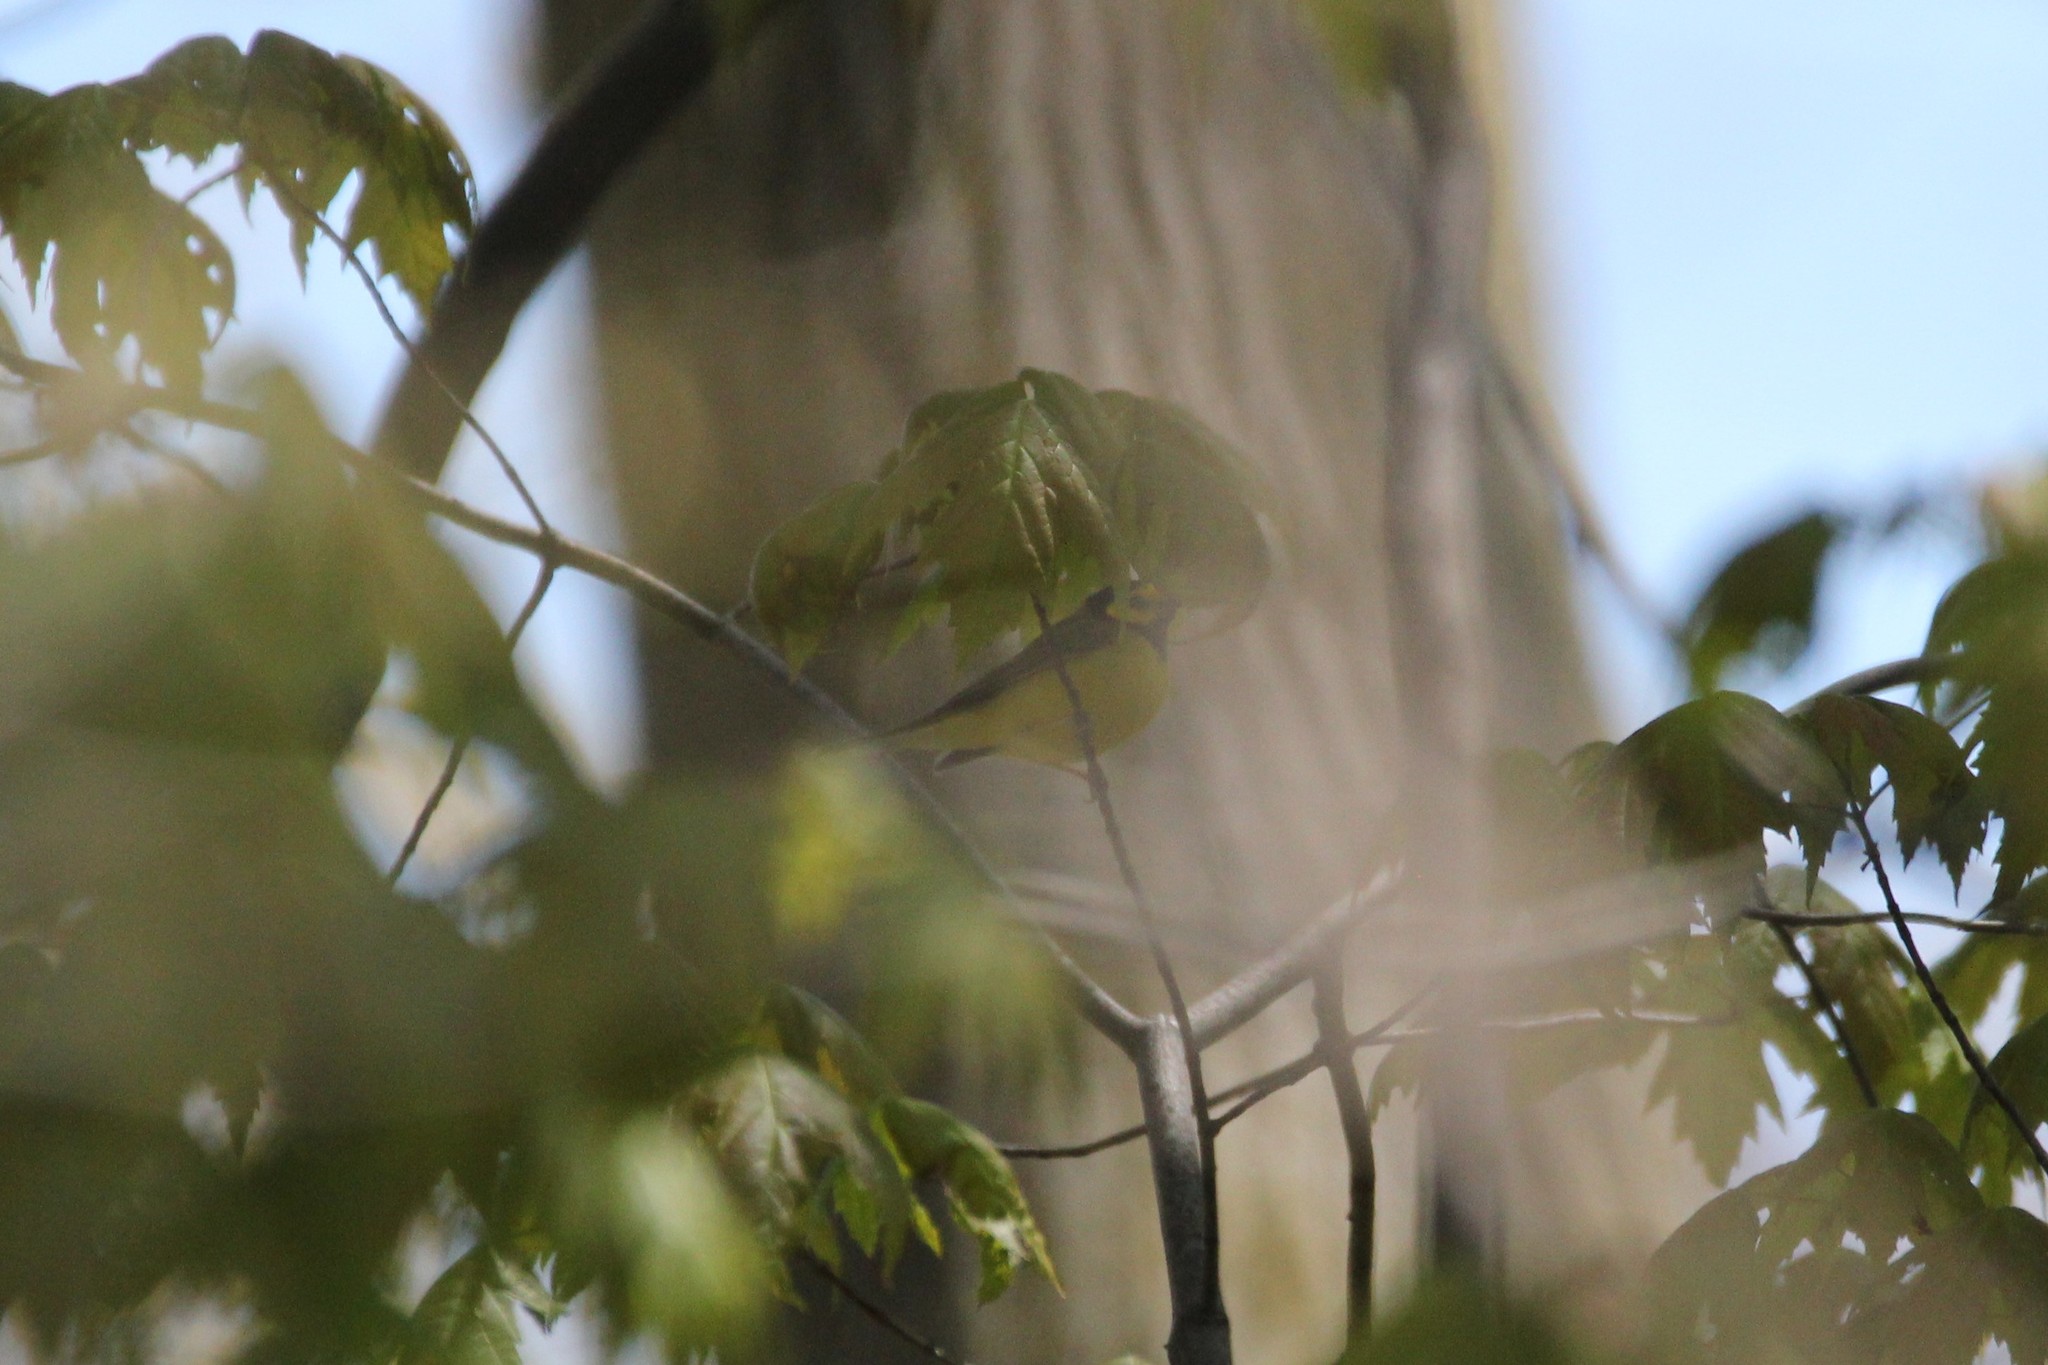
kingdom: Animalia
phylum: Chordata
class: Aves
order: Passeriformes
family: Parulidae
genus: Setophaga
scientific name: Setophaga citrina
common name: Hooded warbler
